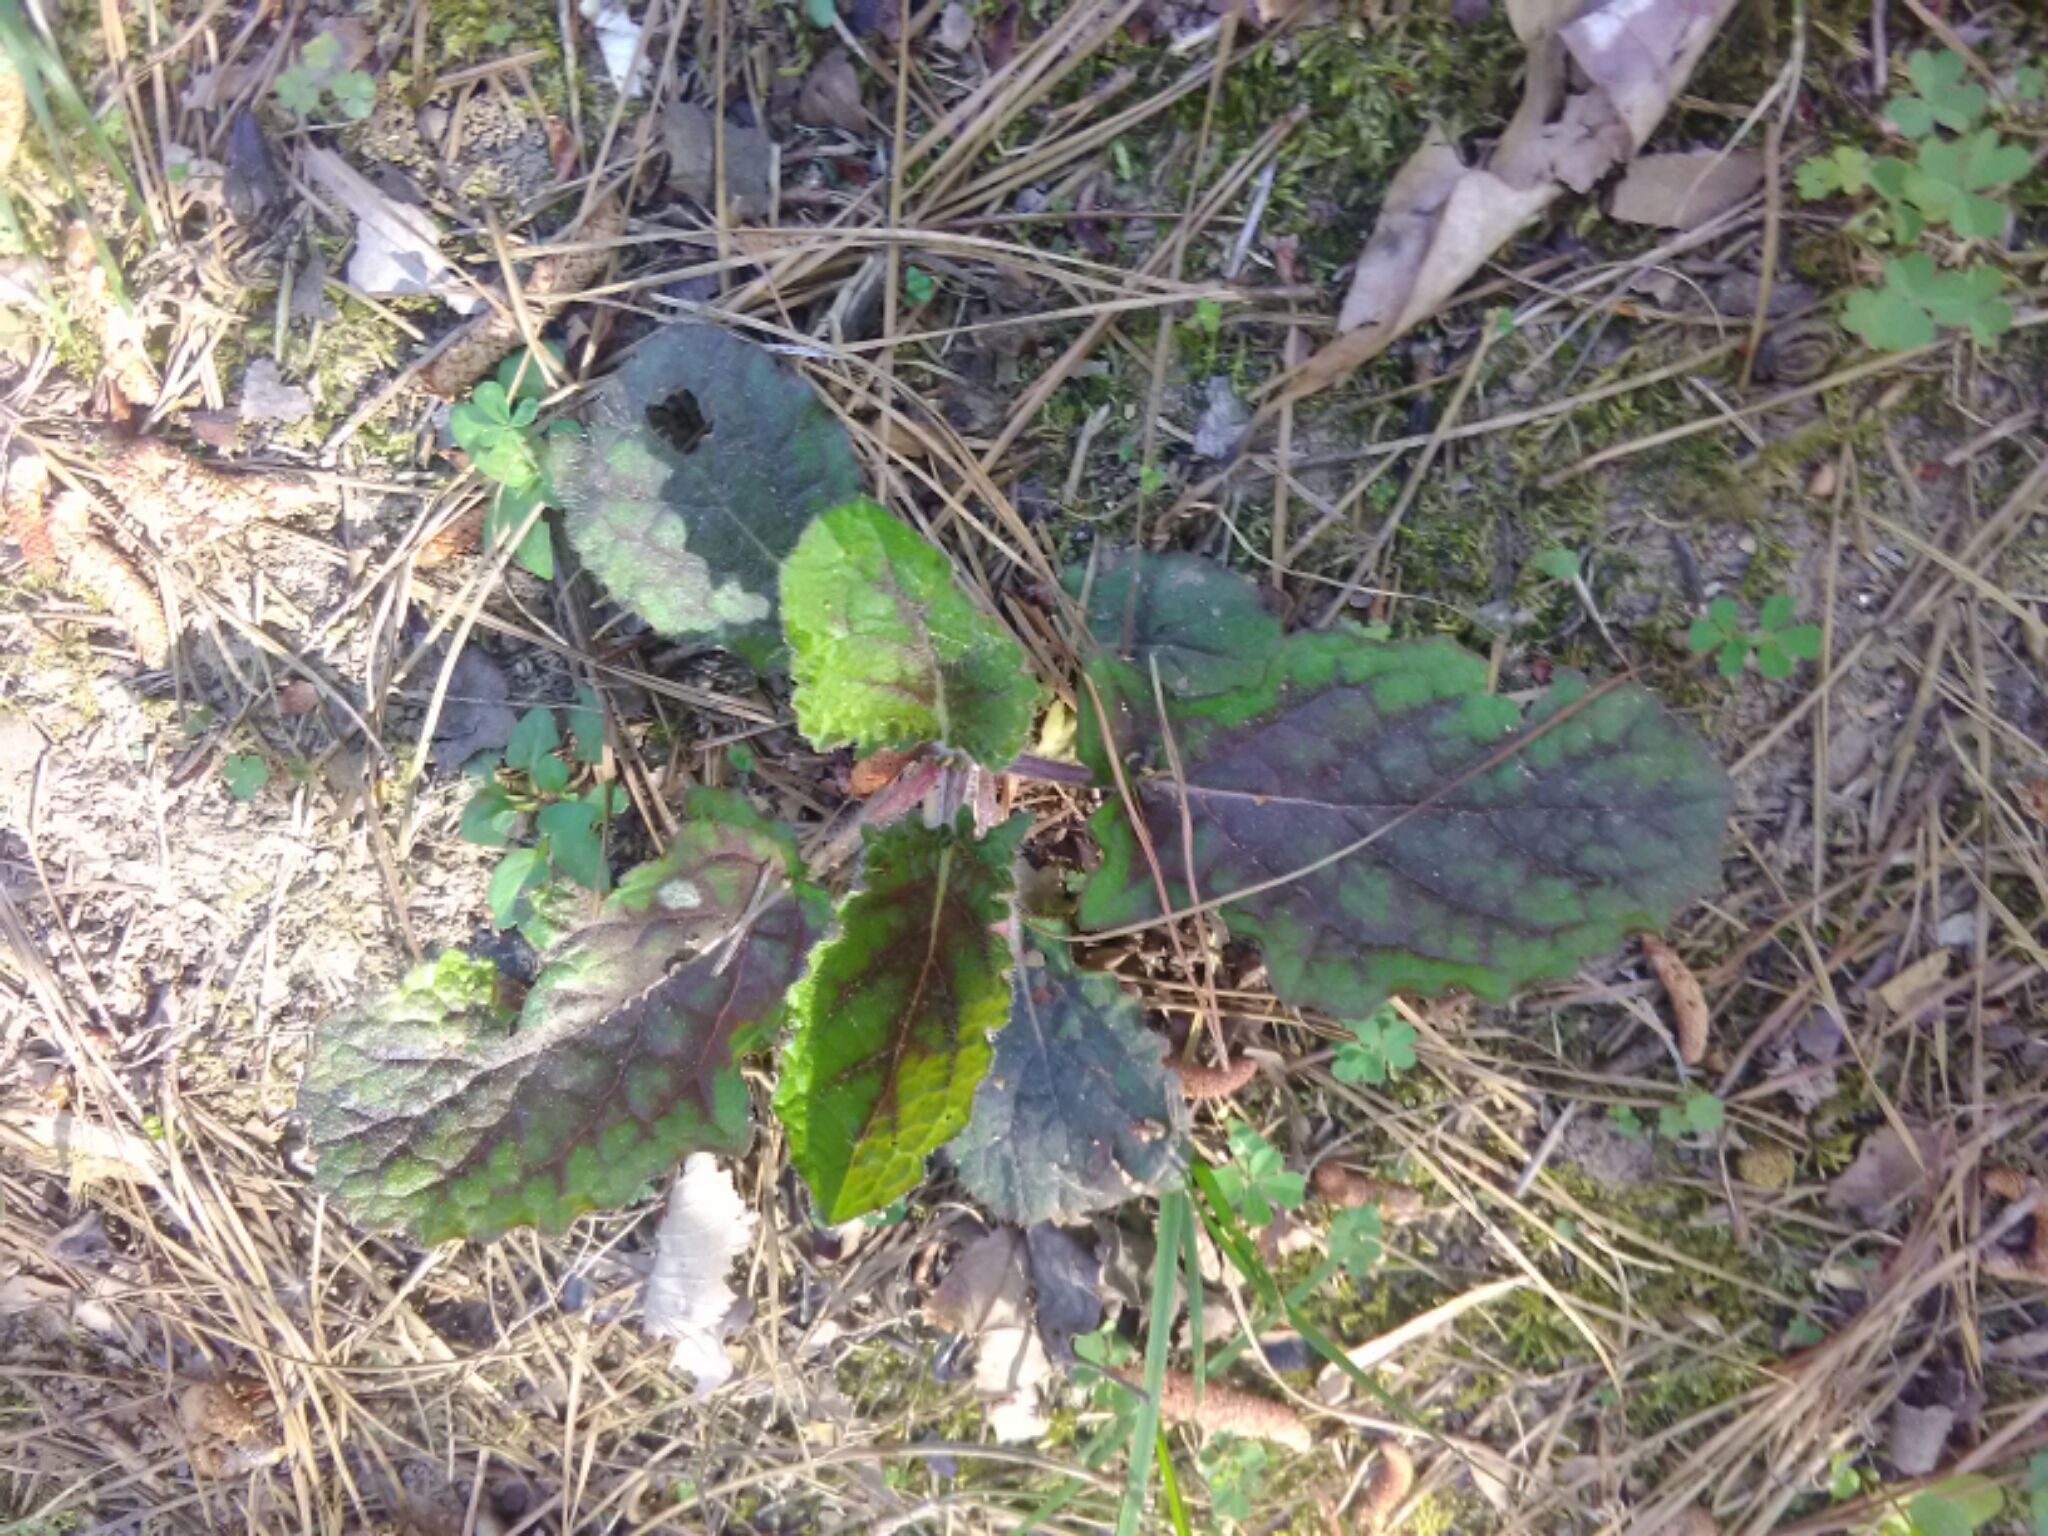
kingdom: Plantae
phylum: Tracheophyta
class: Magnoliopsida
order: Lamiales
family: Lamiaceae
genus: Salvia
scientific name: Salvia lyrata
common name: Cancerweed
